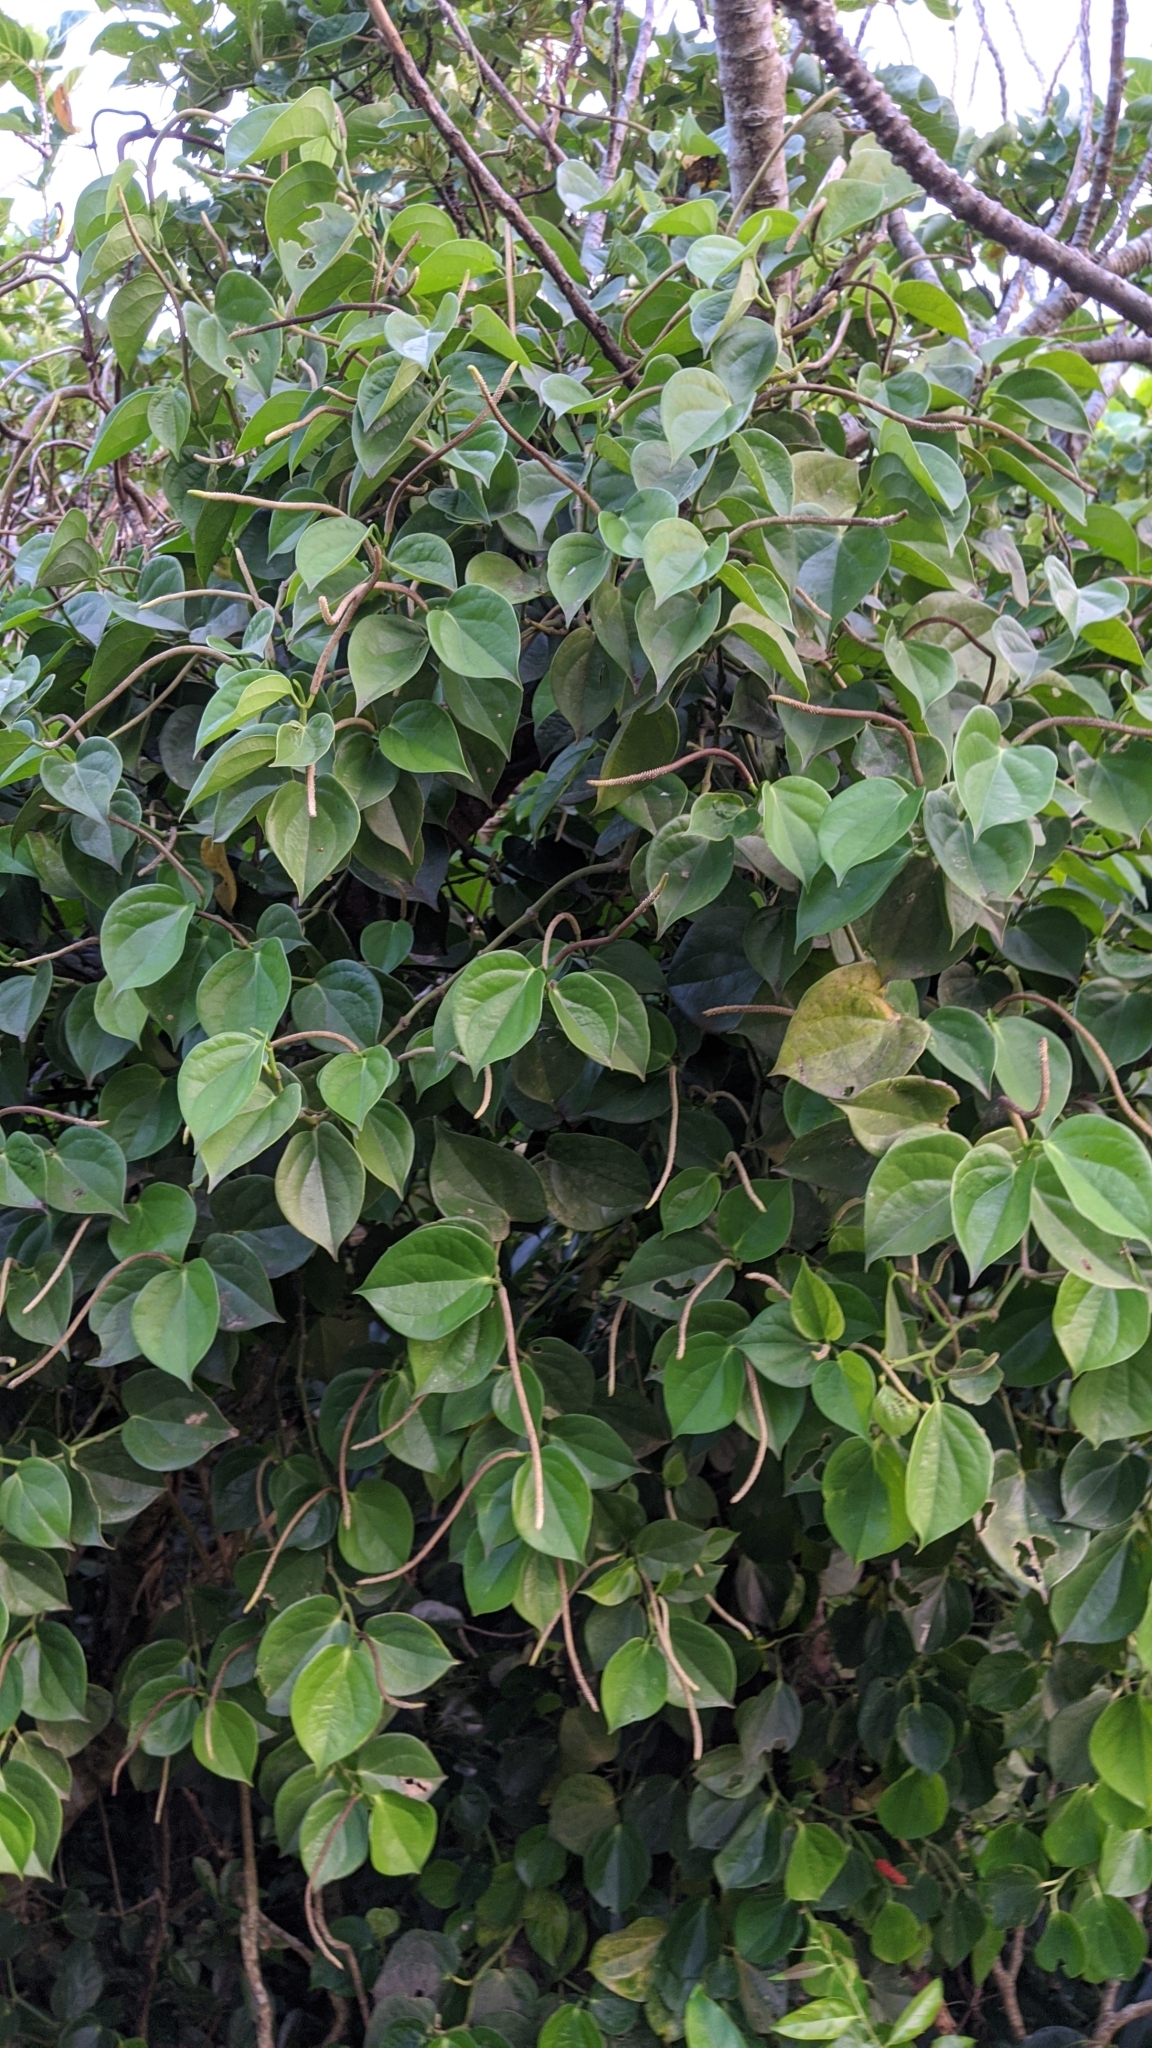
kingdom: Plantae
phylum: Tracheophyta
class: Magnoliopsida
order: Piperales
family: Piperaceae
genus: Piper
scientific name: Piper lanyuense
